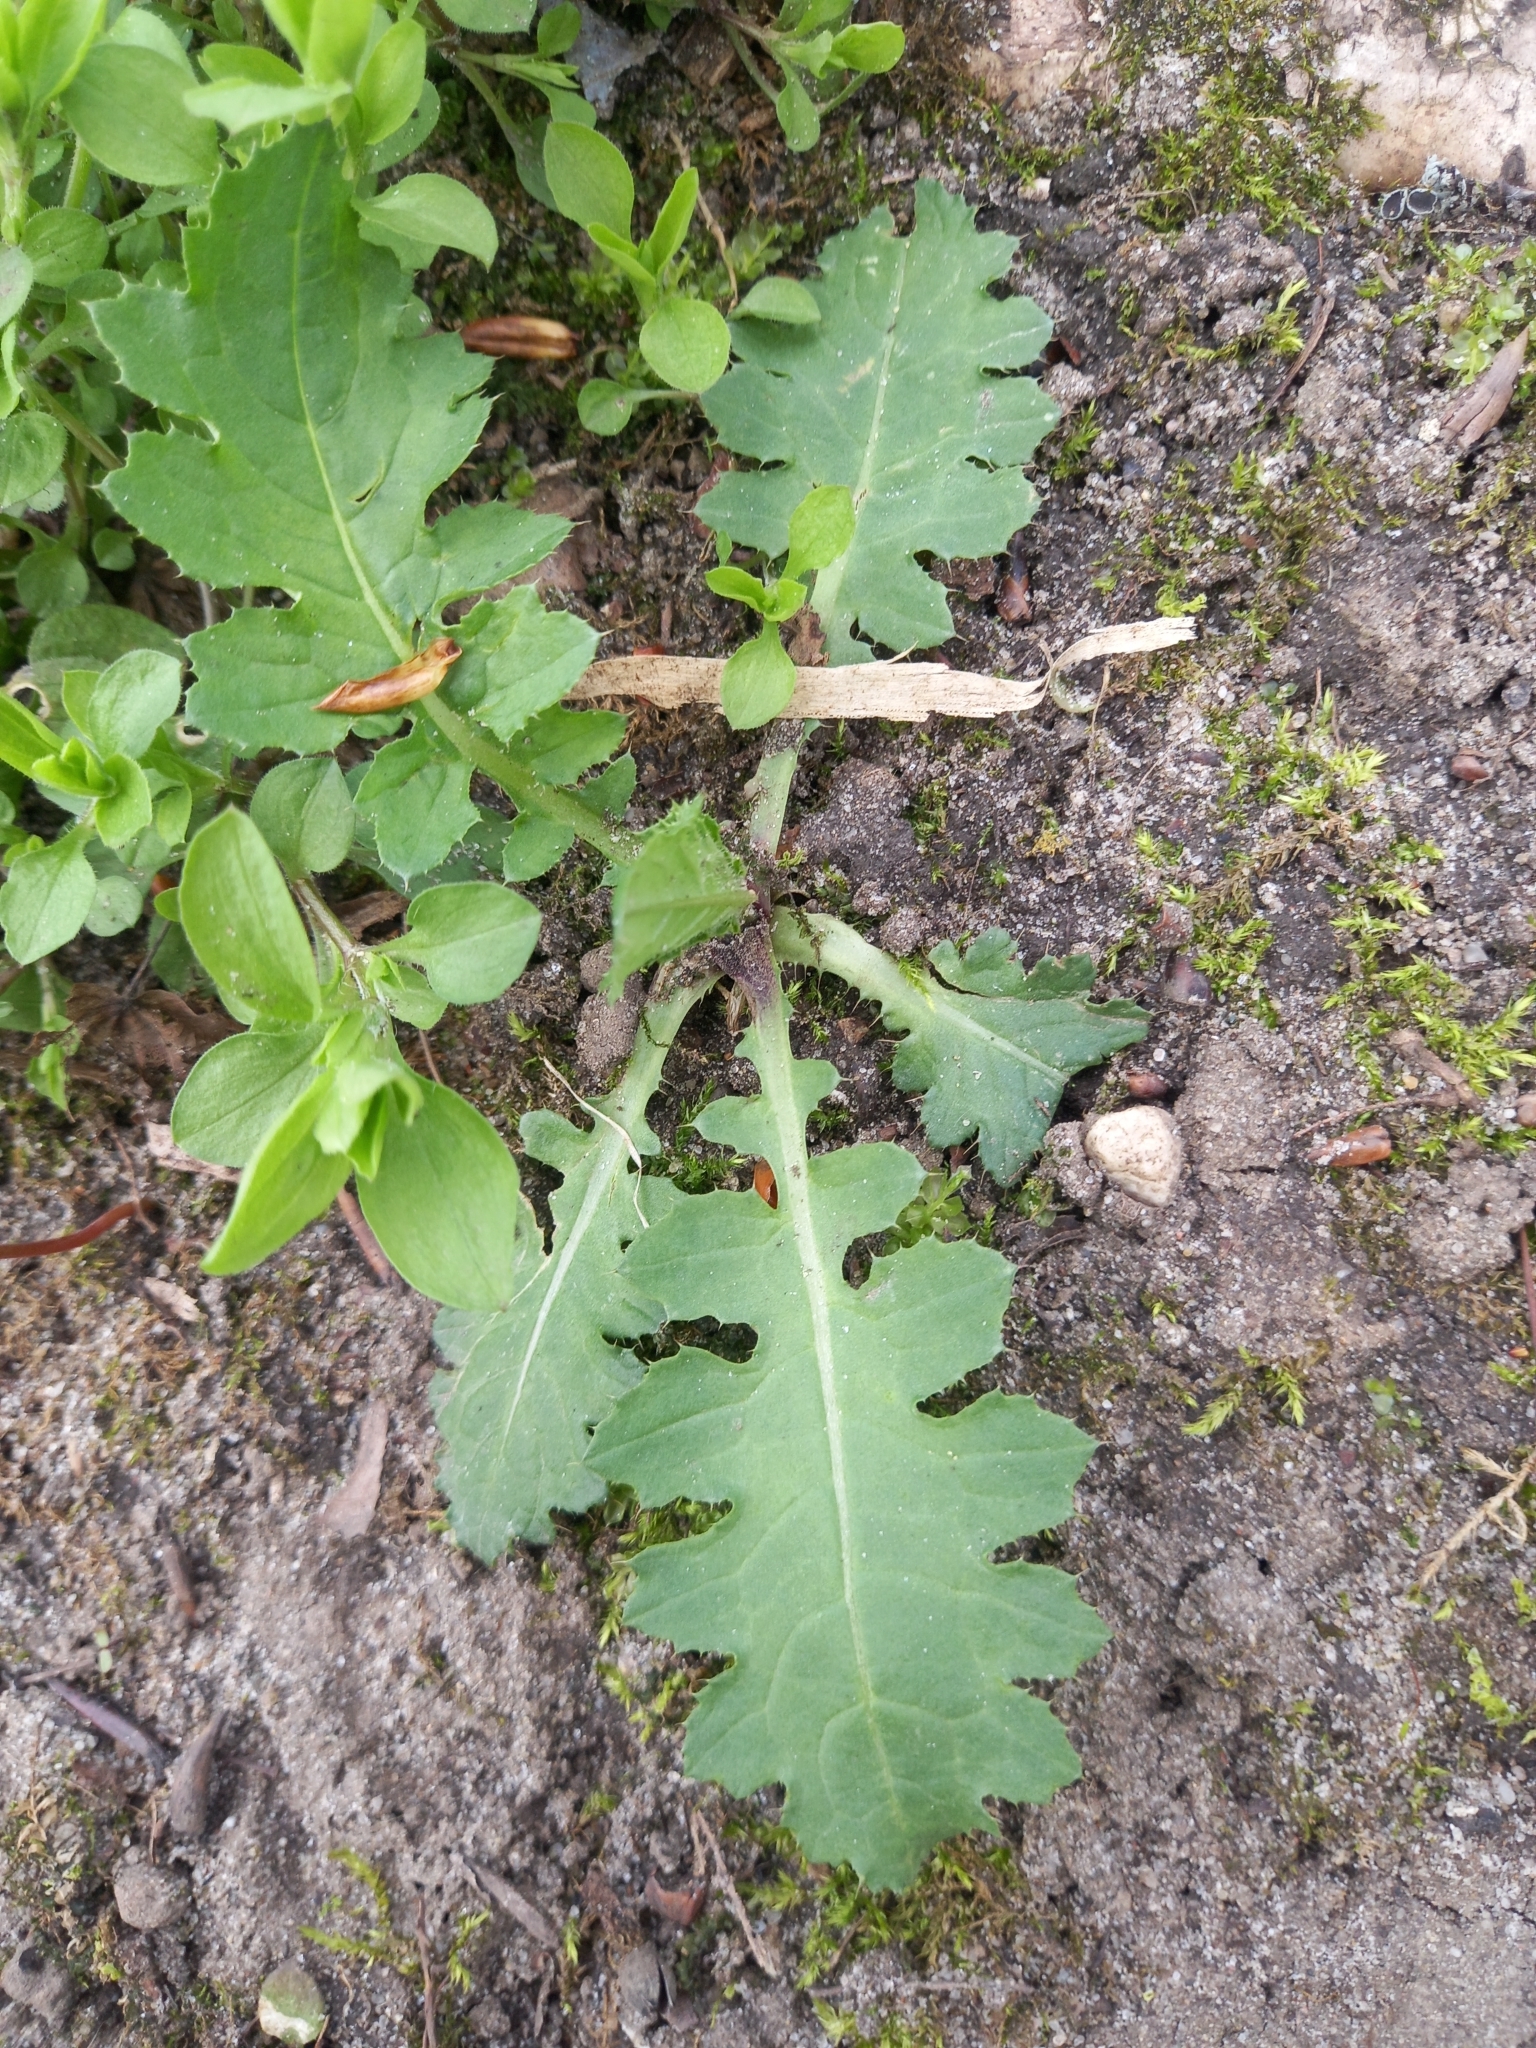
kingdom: Plantae
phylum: Tracheophyta
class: Magnoliopsida
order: Asterales
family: Asteraceae
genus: Carduus
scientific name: Carduus crispus
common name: Welted thistle
